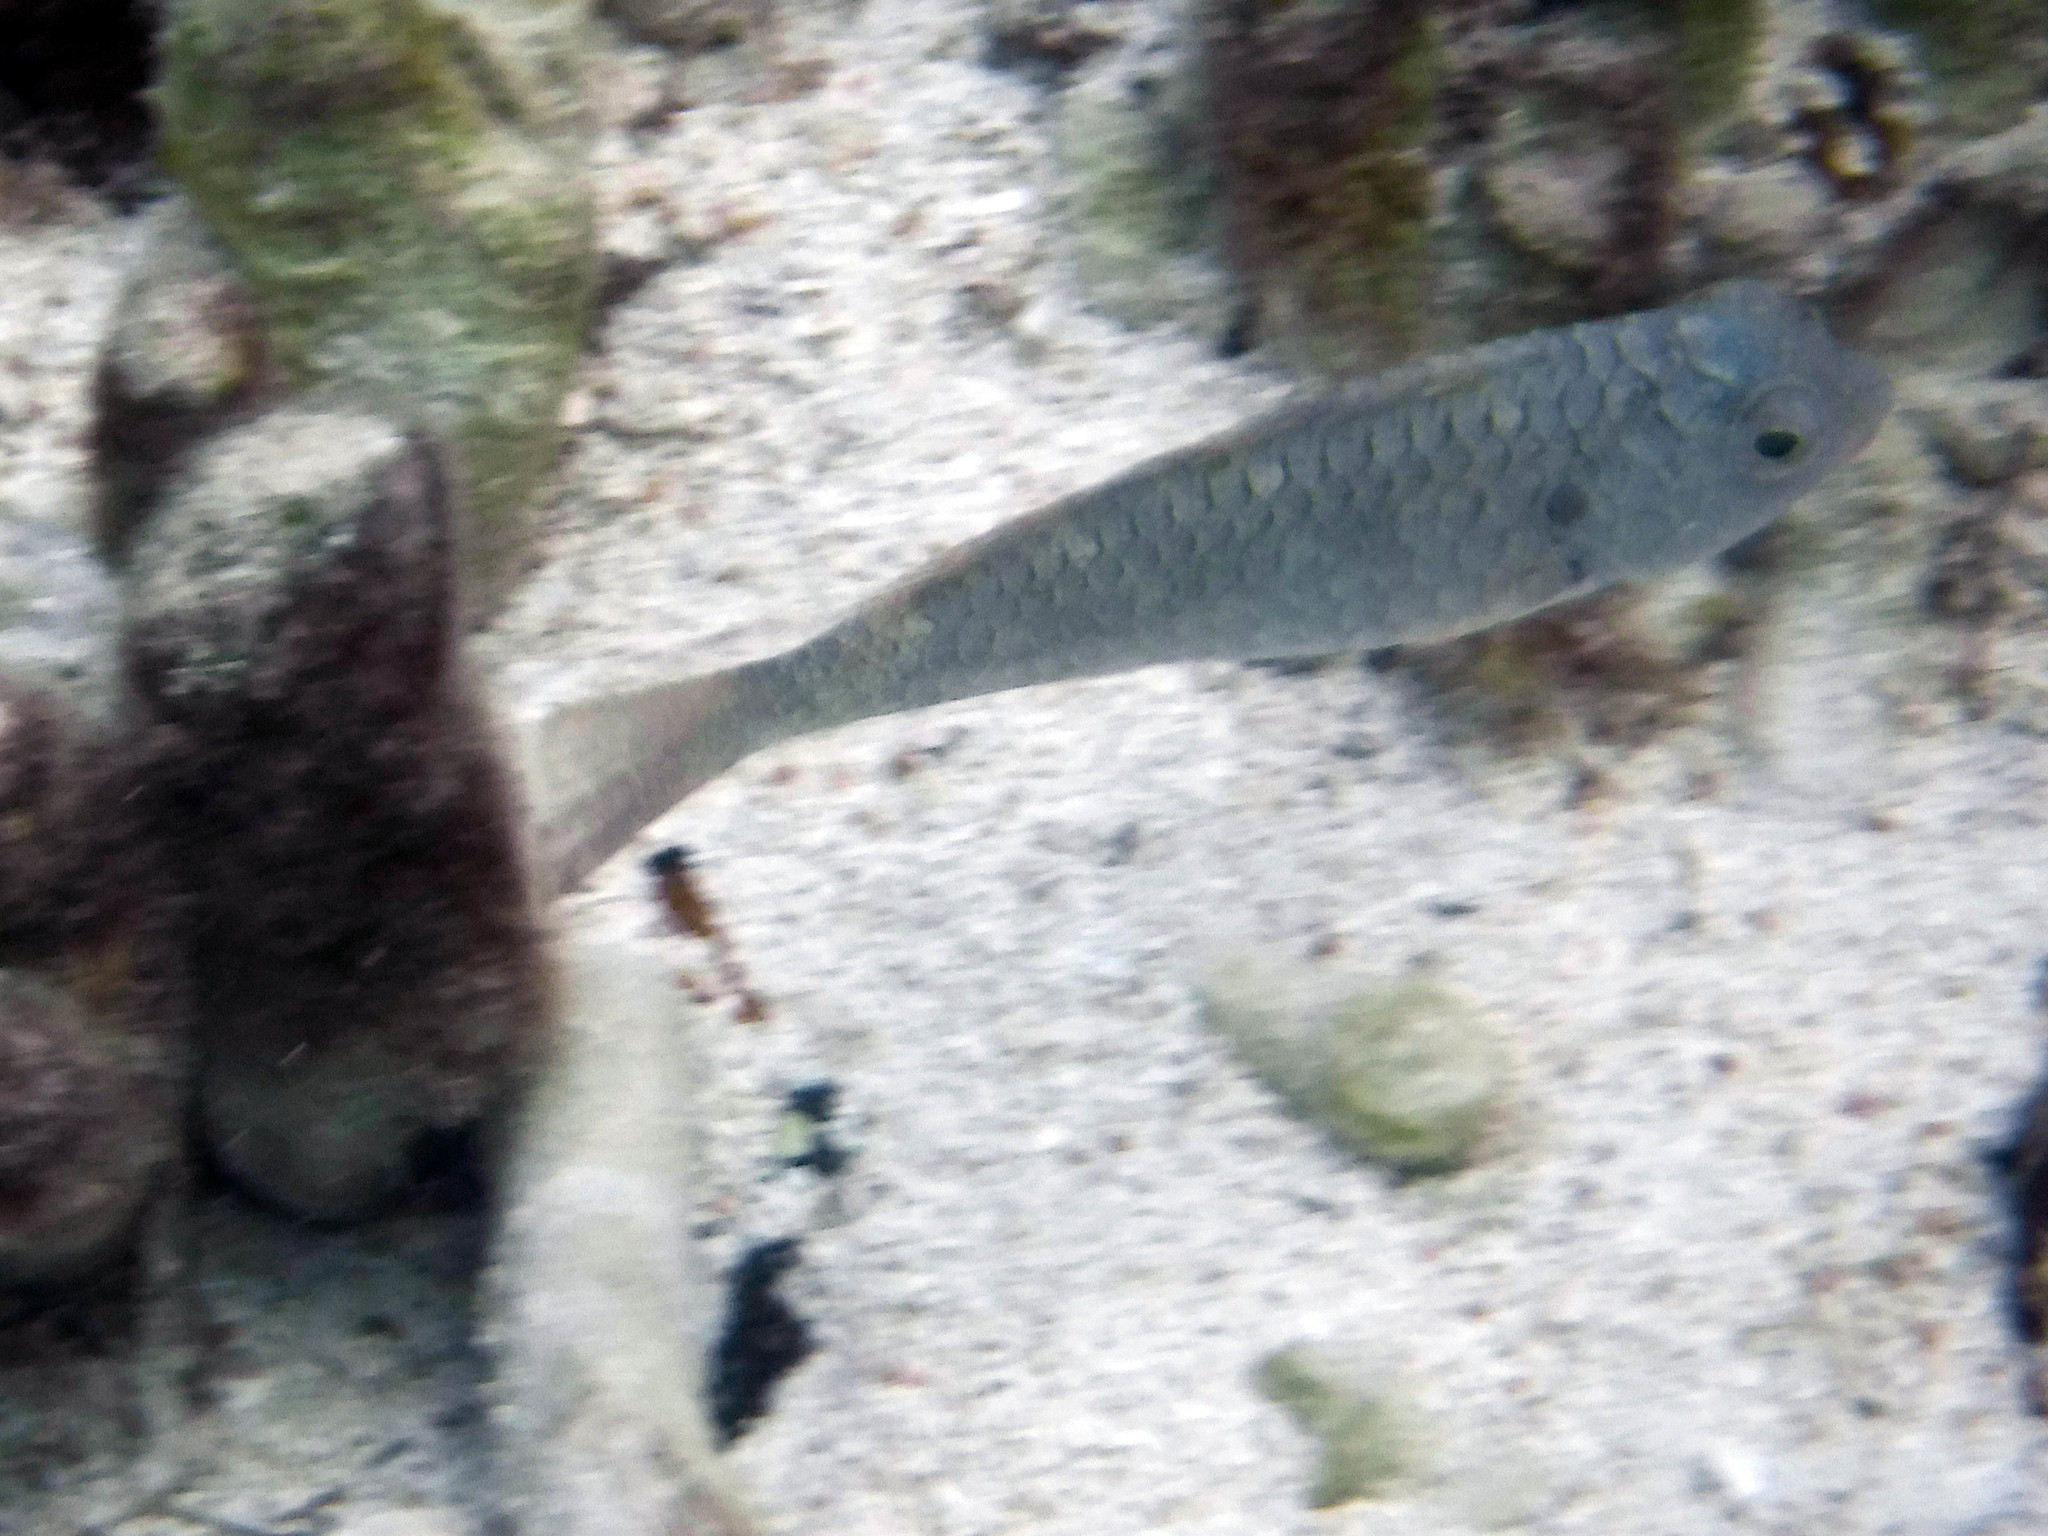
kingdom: Animalia
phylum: Chordata
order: Perciformes
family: Labridae
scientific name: Labridae
